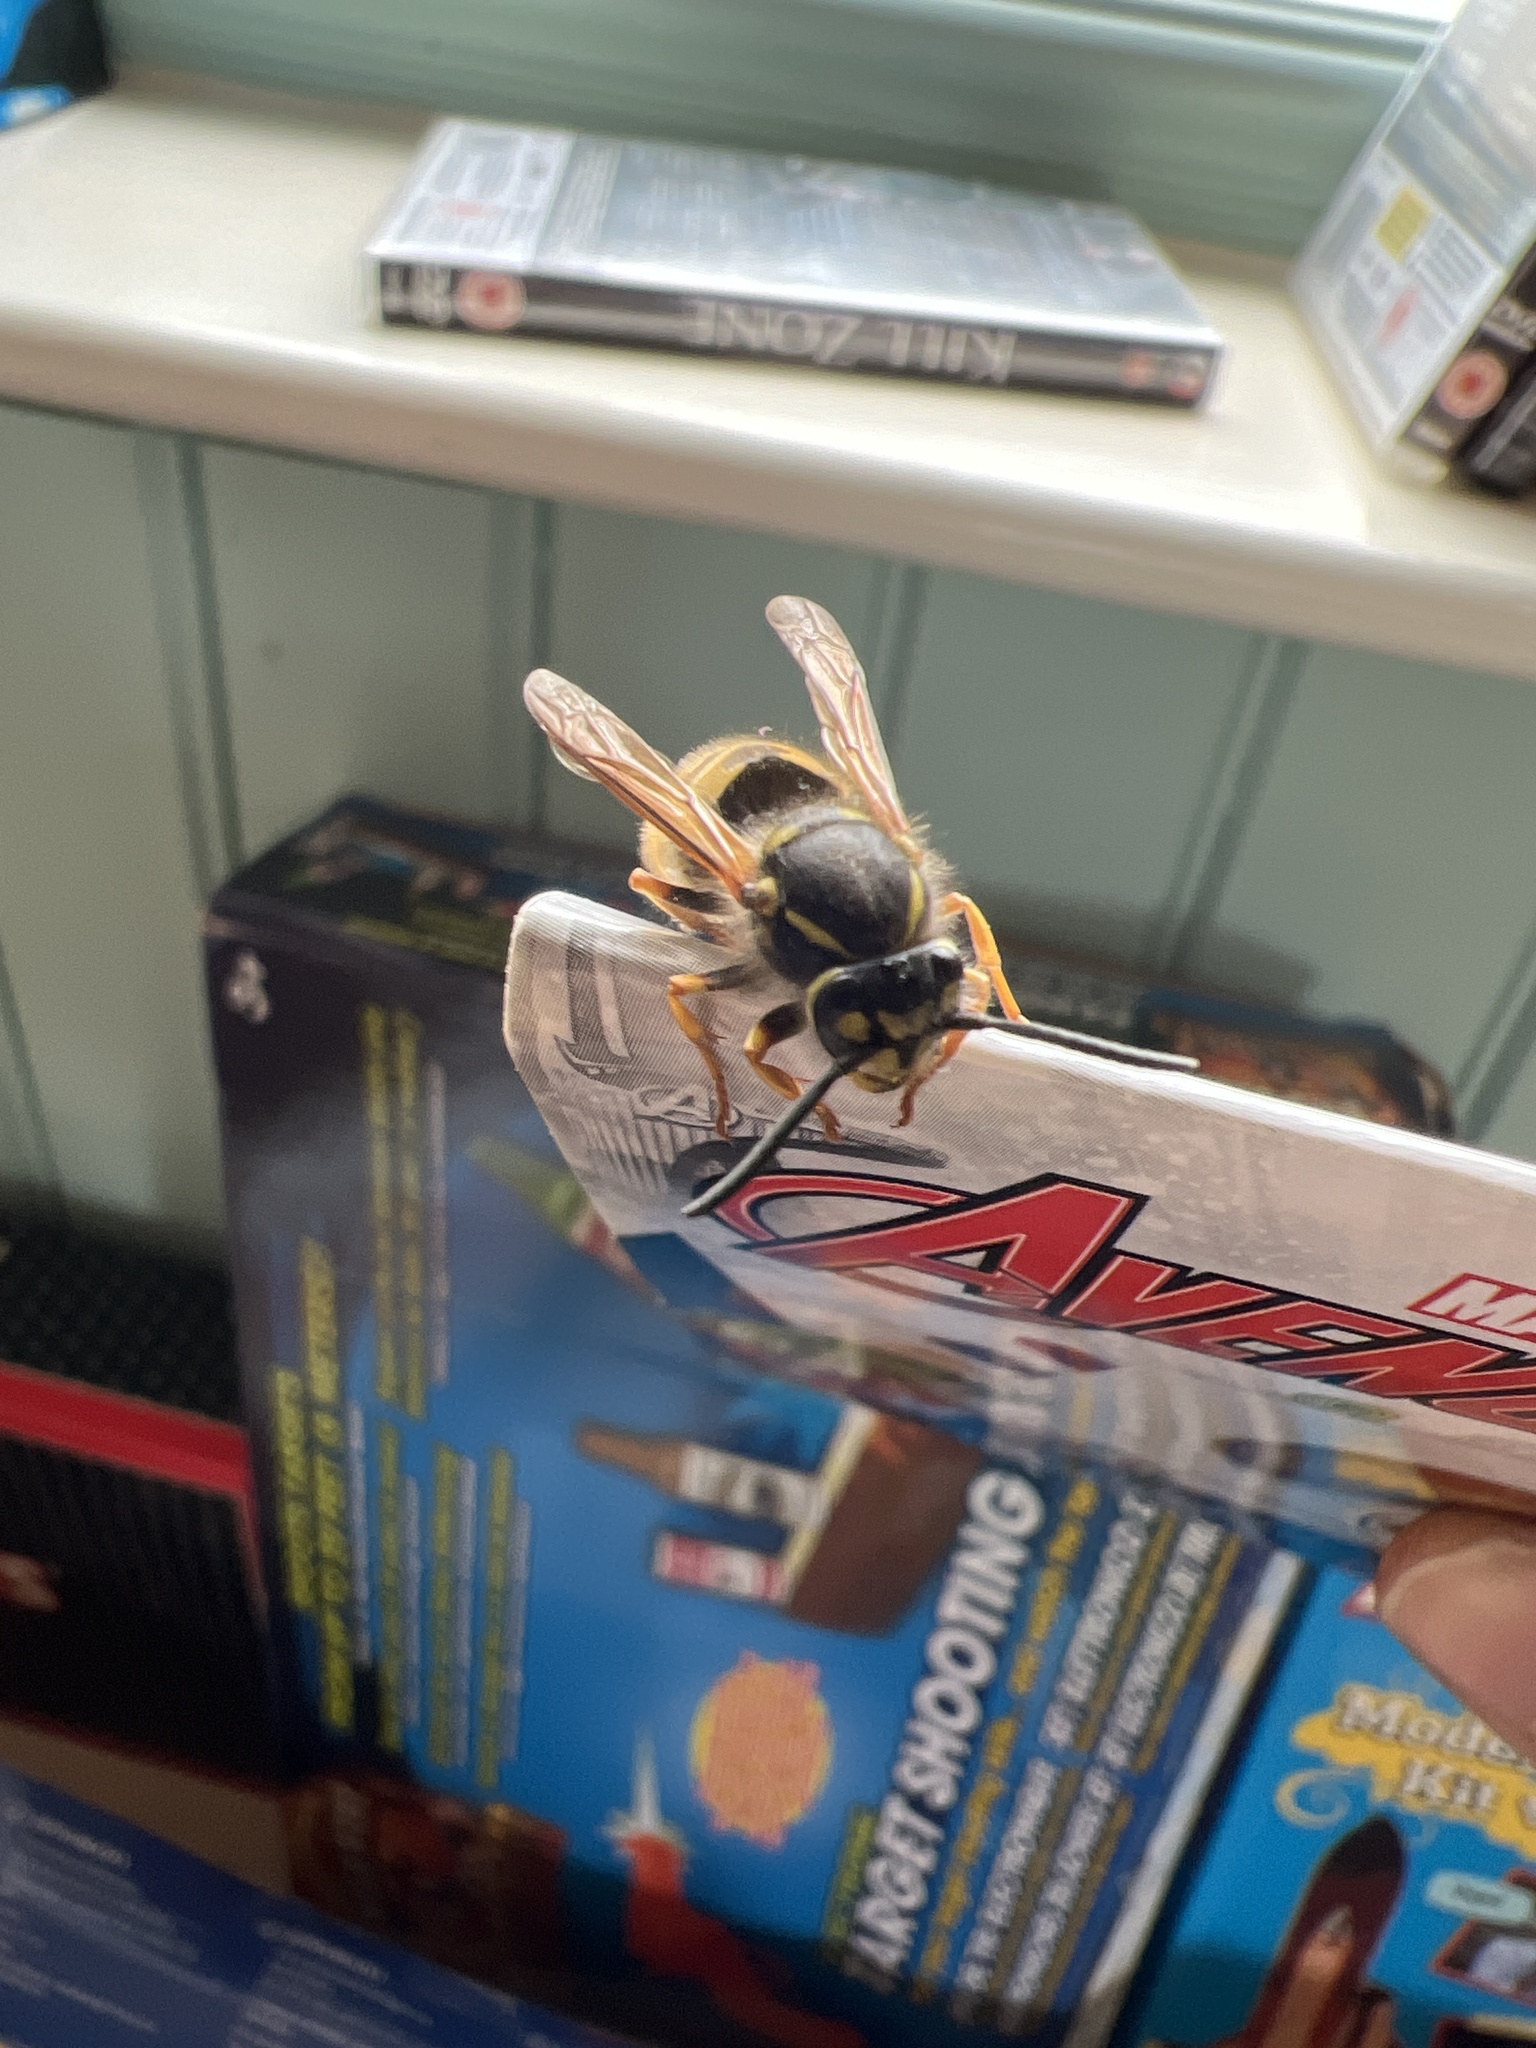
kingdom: Animalia
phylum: Arthropoda
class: Insecta
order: Hymenoptera
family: Vespidae
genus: Vespula
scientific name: Vespula germanica
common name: German wasp
